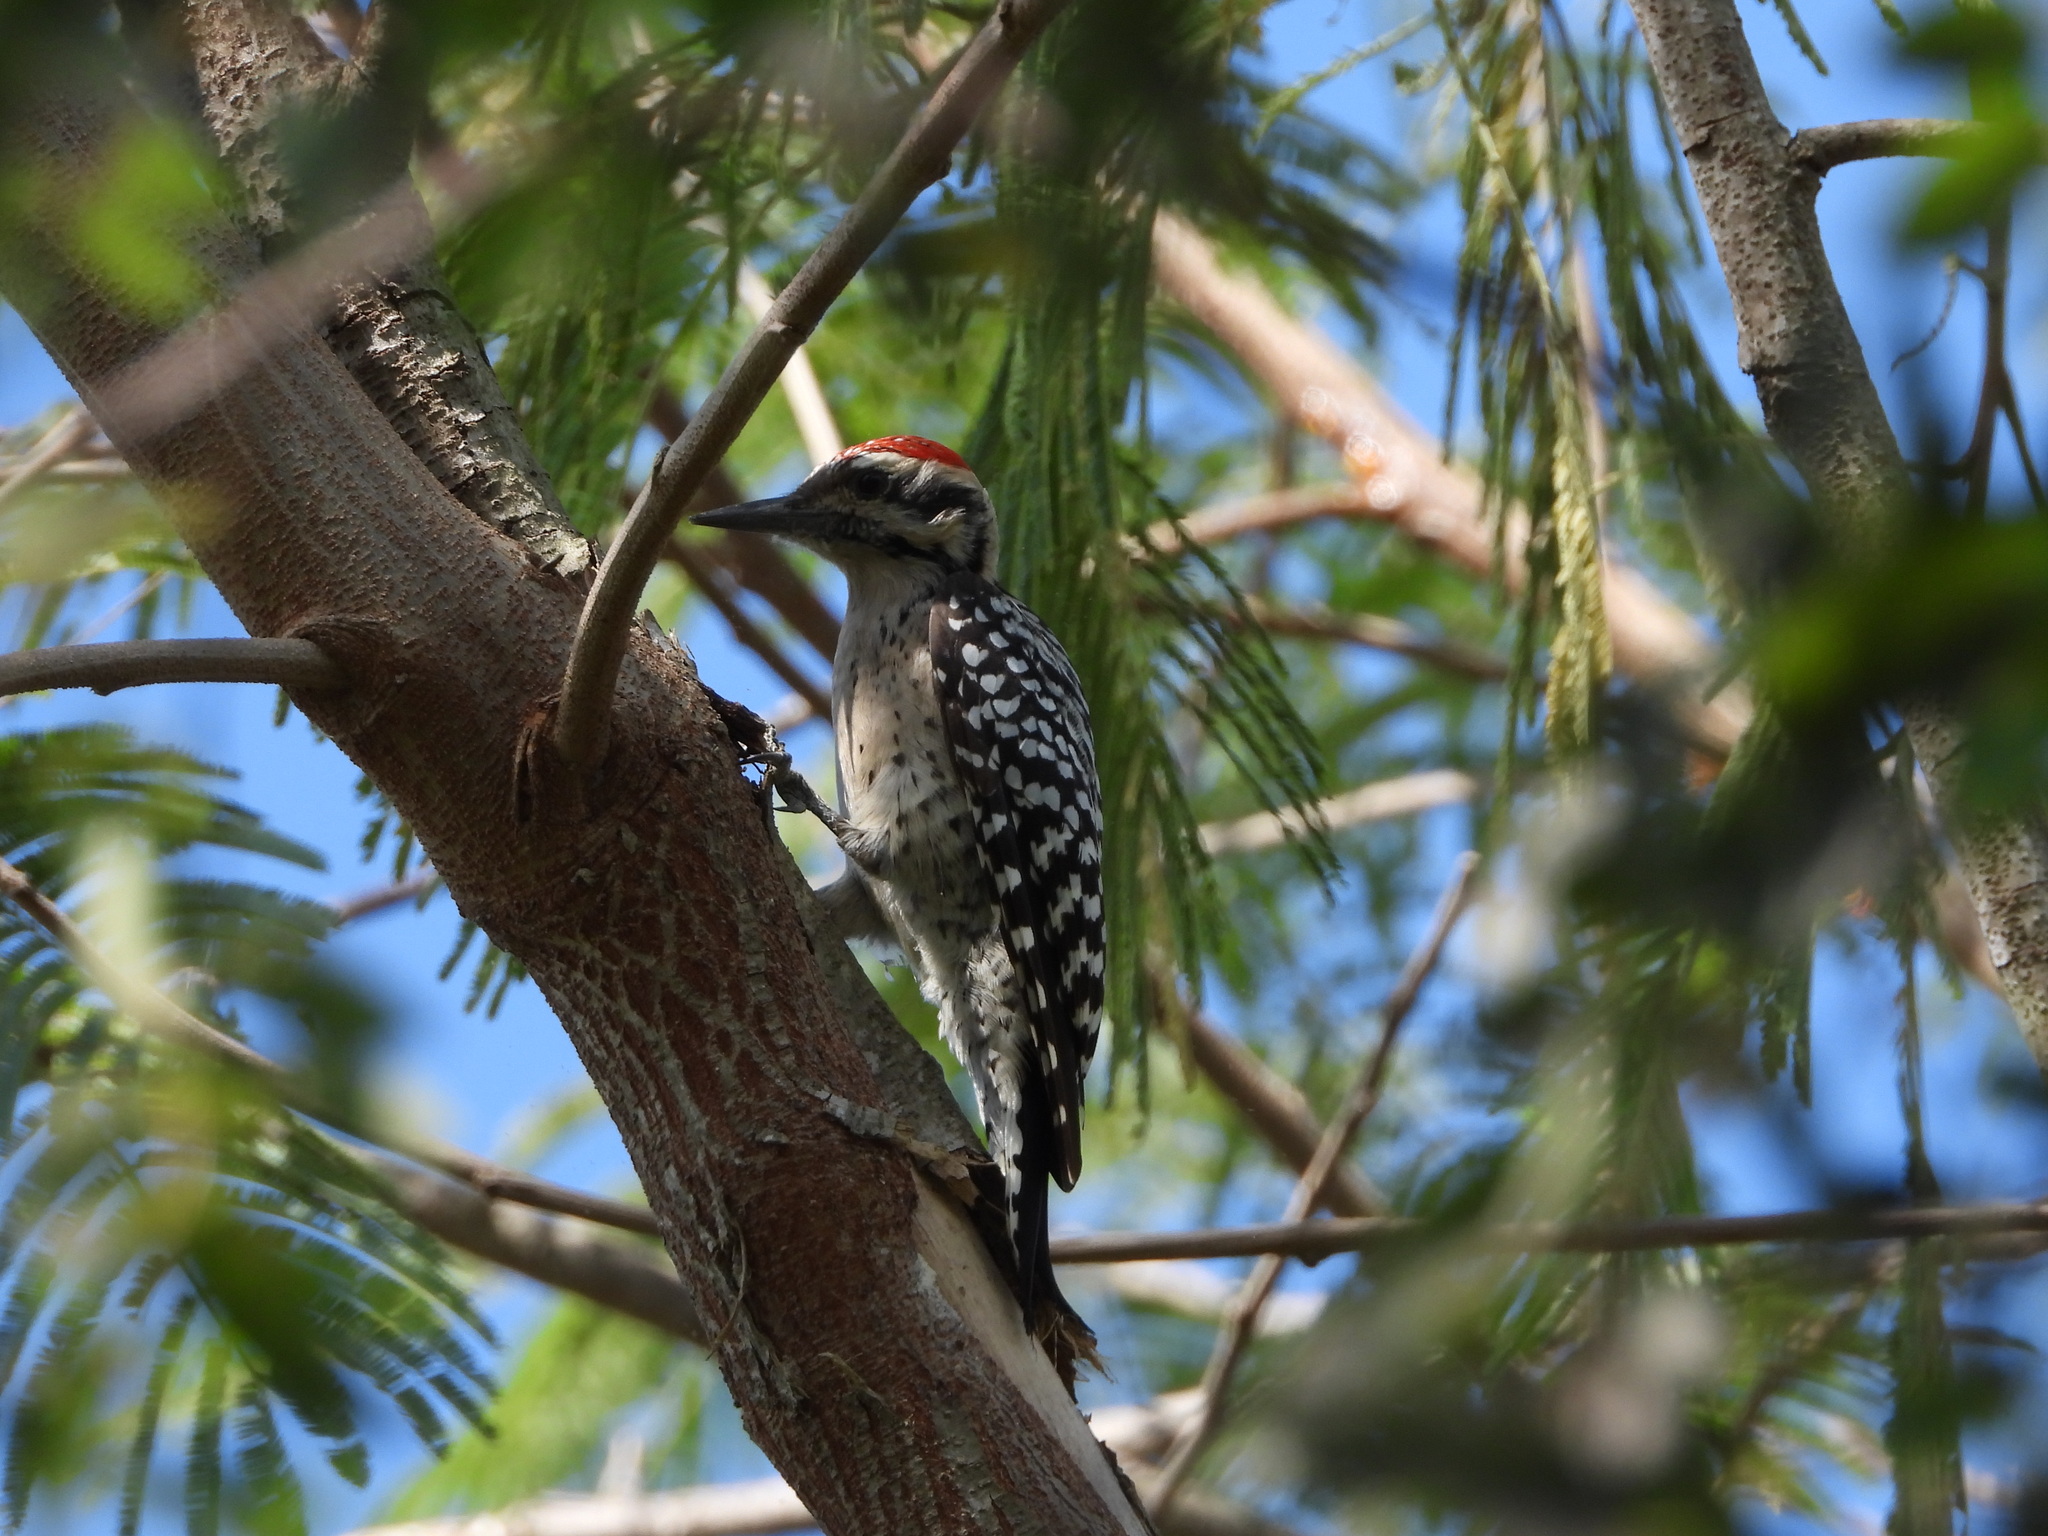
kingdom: Animalia
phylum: Chordata
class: Aves
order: Piciformes
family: Picidae
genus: Dryobates
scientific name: Dryobates scalaris
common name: Ladder-backed woodpecker
